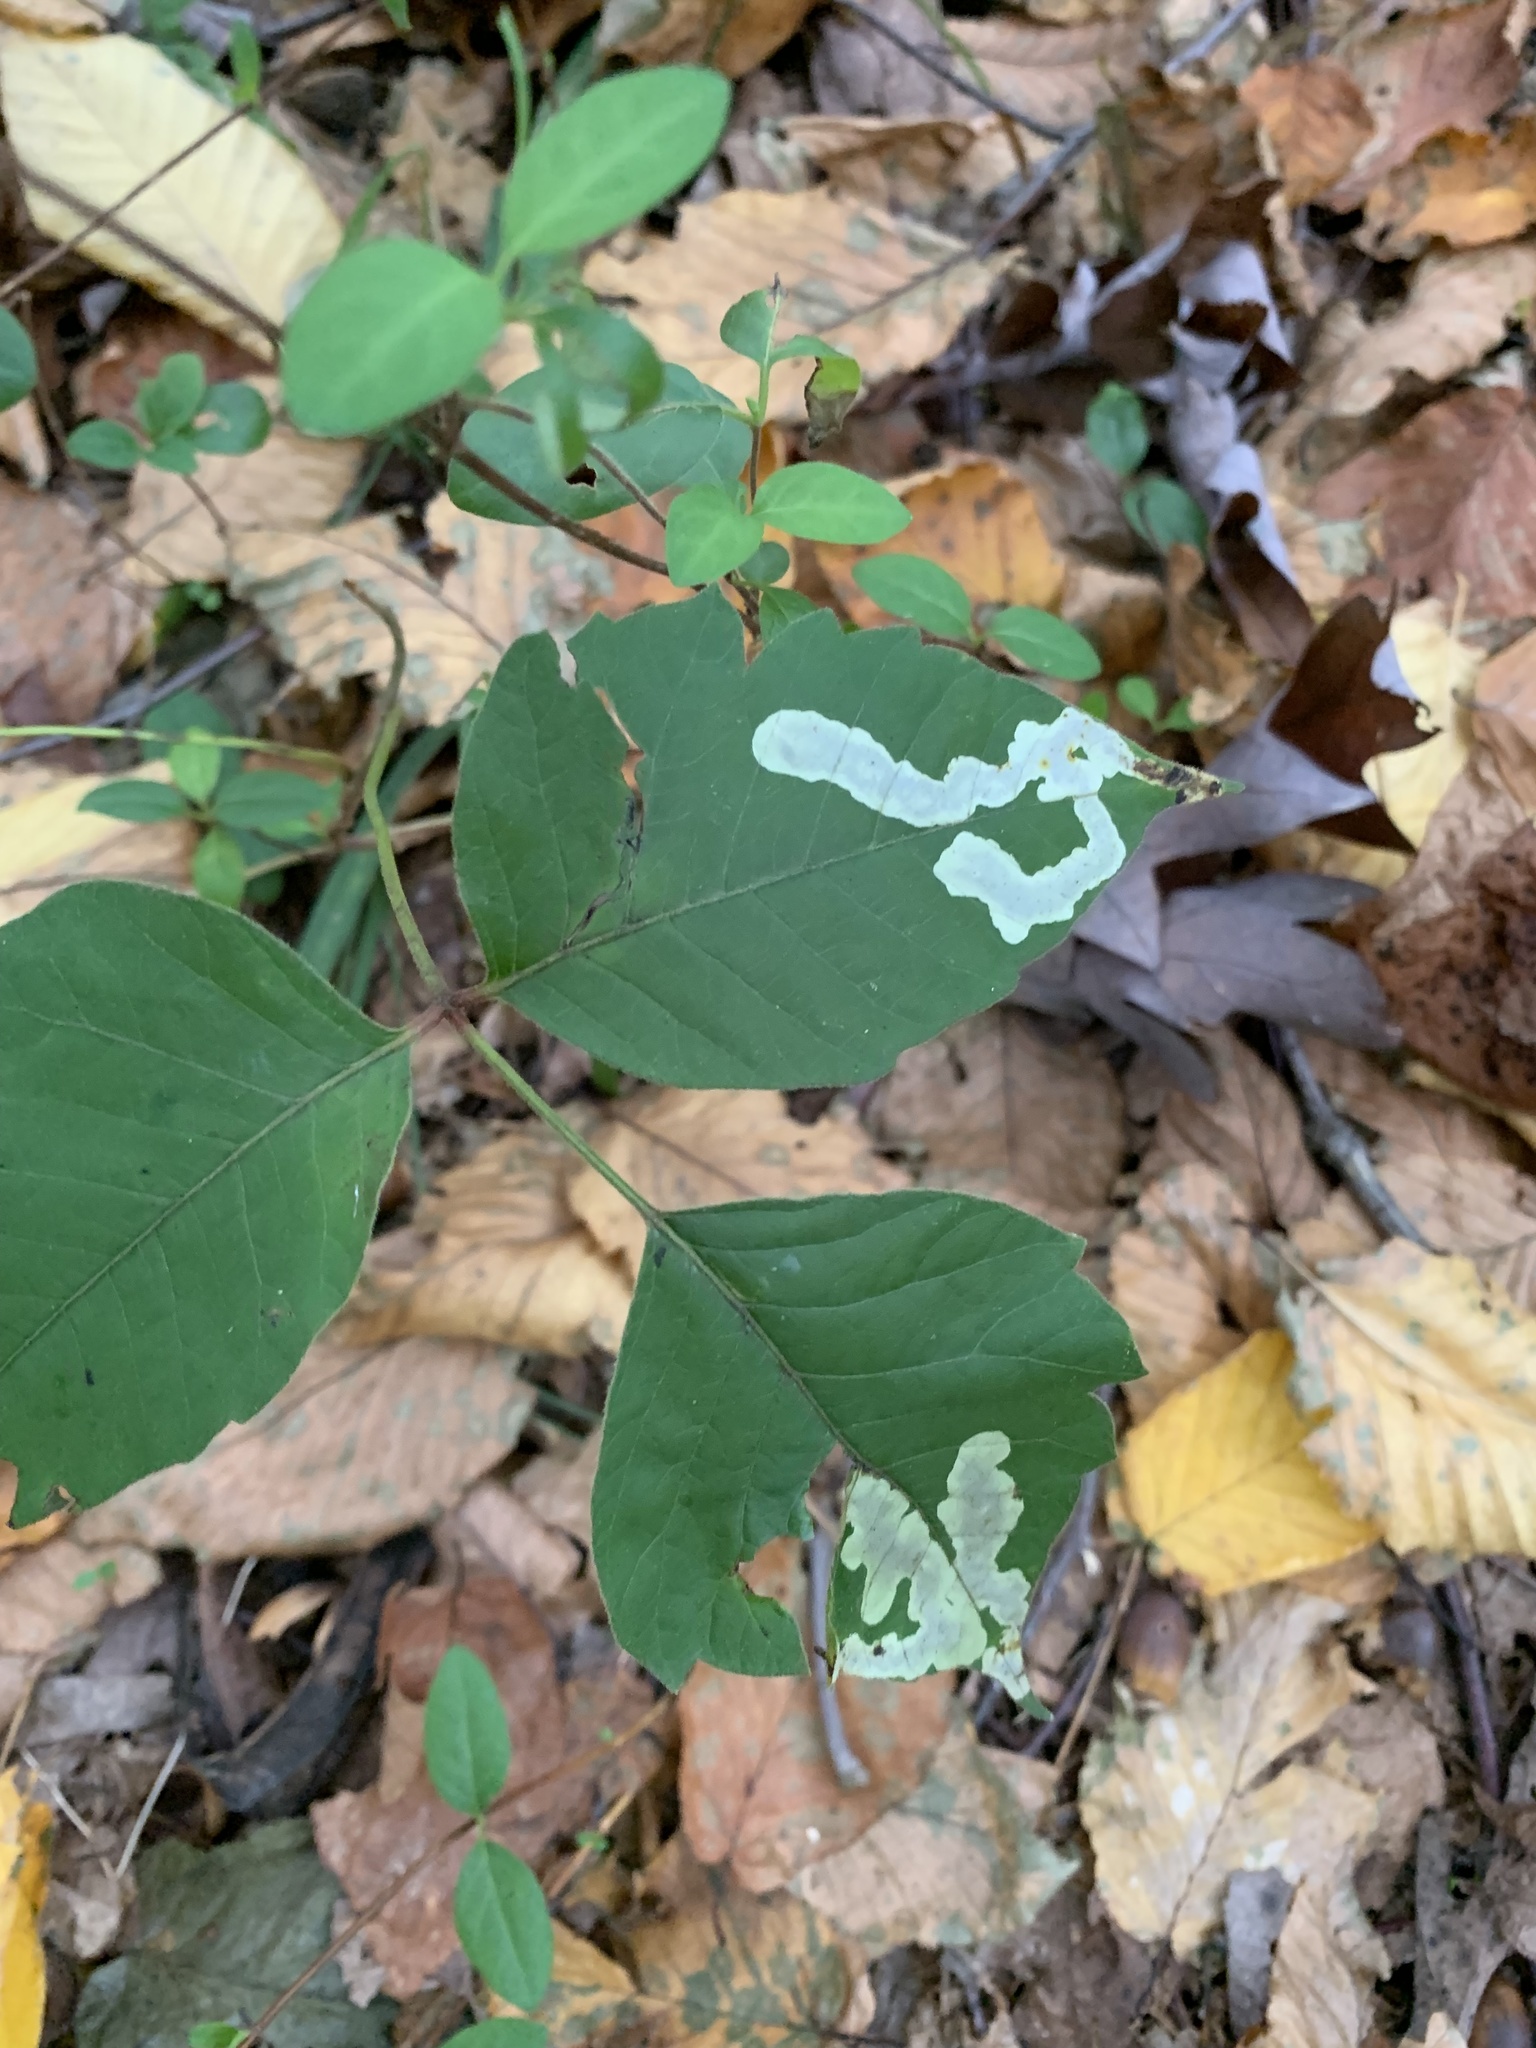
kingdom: Animalia
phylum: Arthropoda
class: Insecta
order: Lepidoptera
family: Gracillariidae
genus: Cameraria
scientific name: Cameraria guttifinitella
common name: Poison ivy leaf-miner moth
